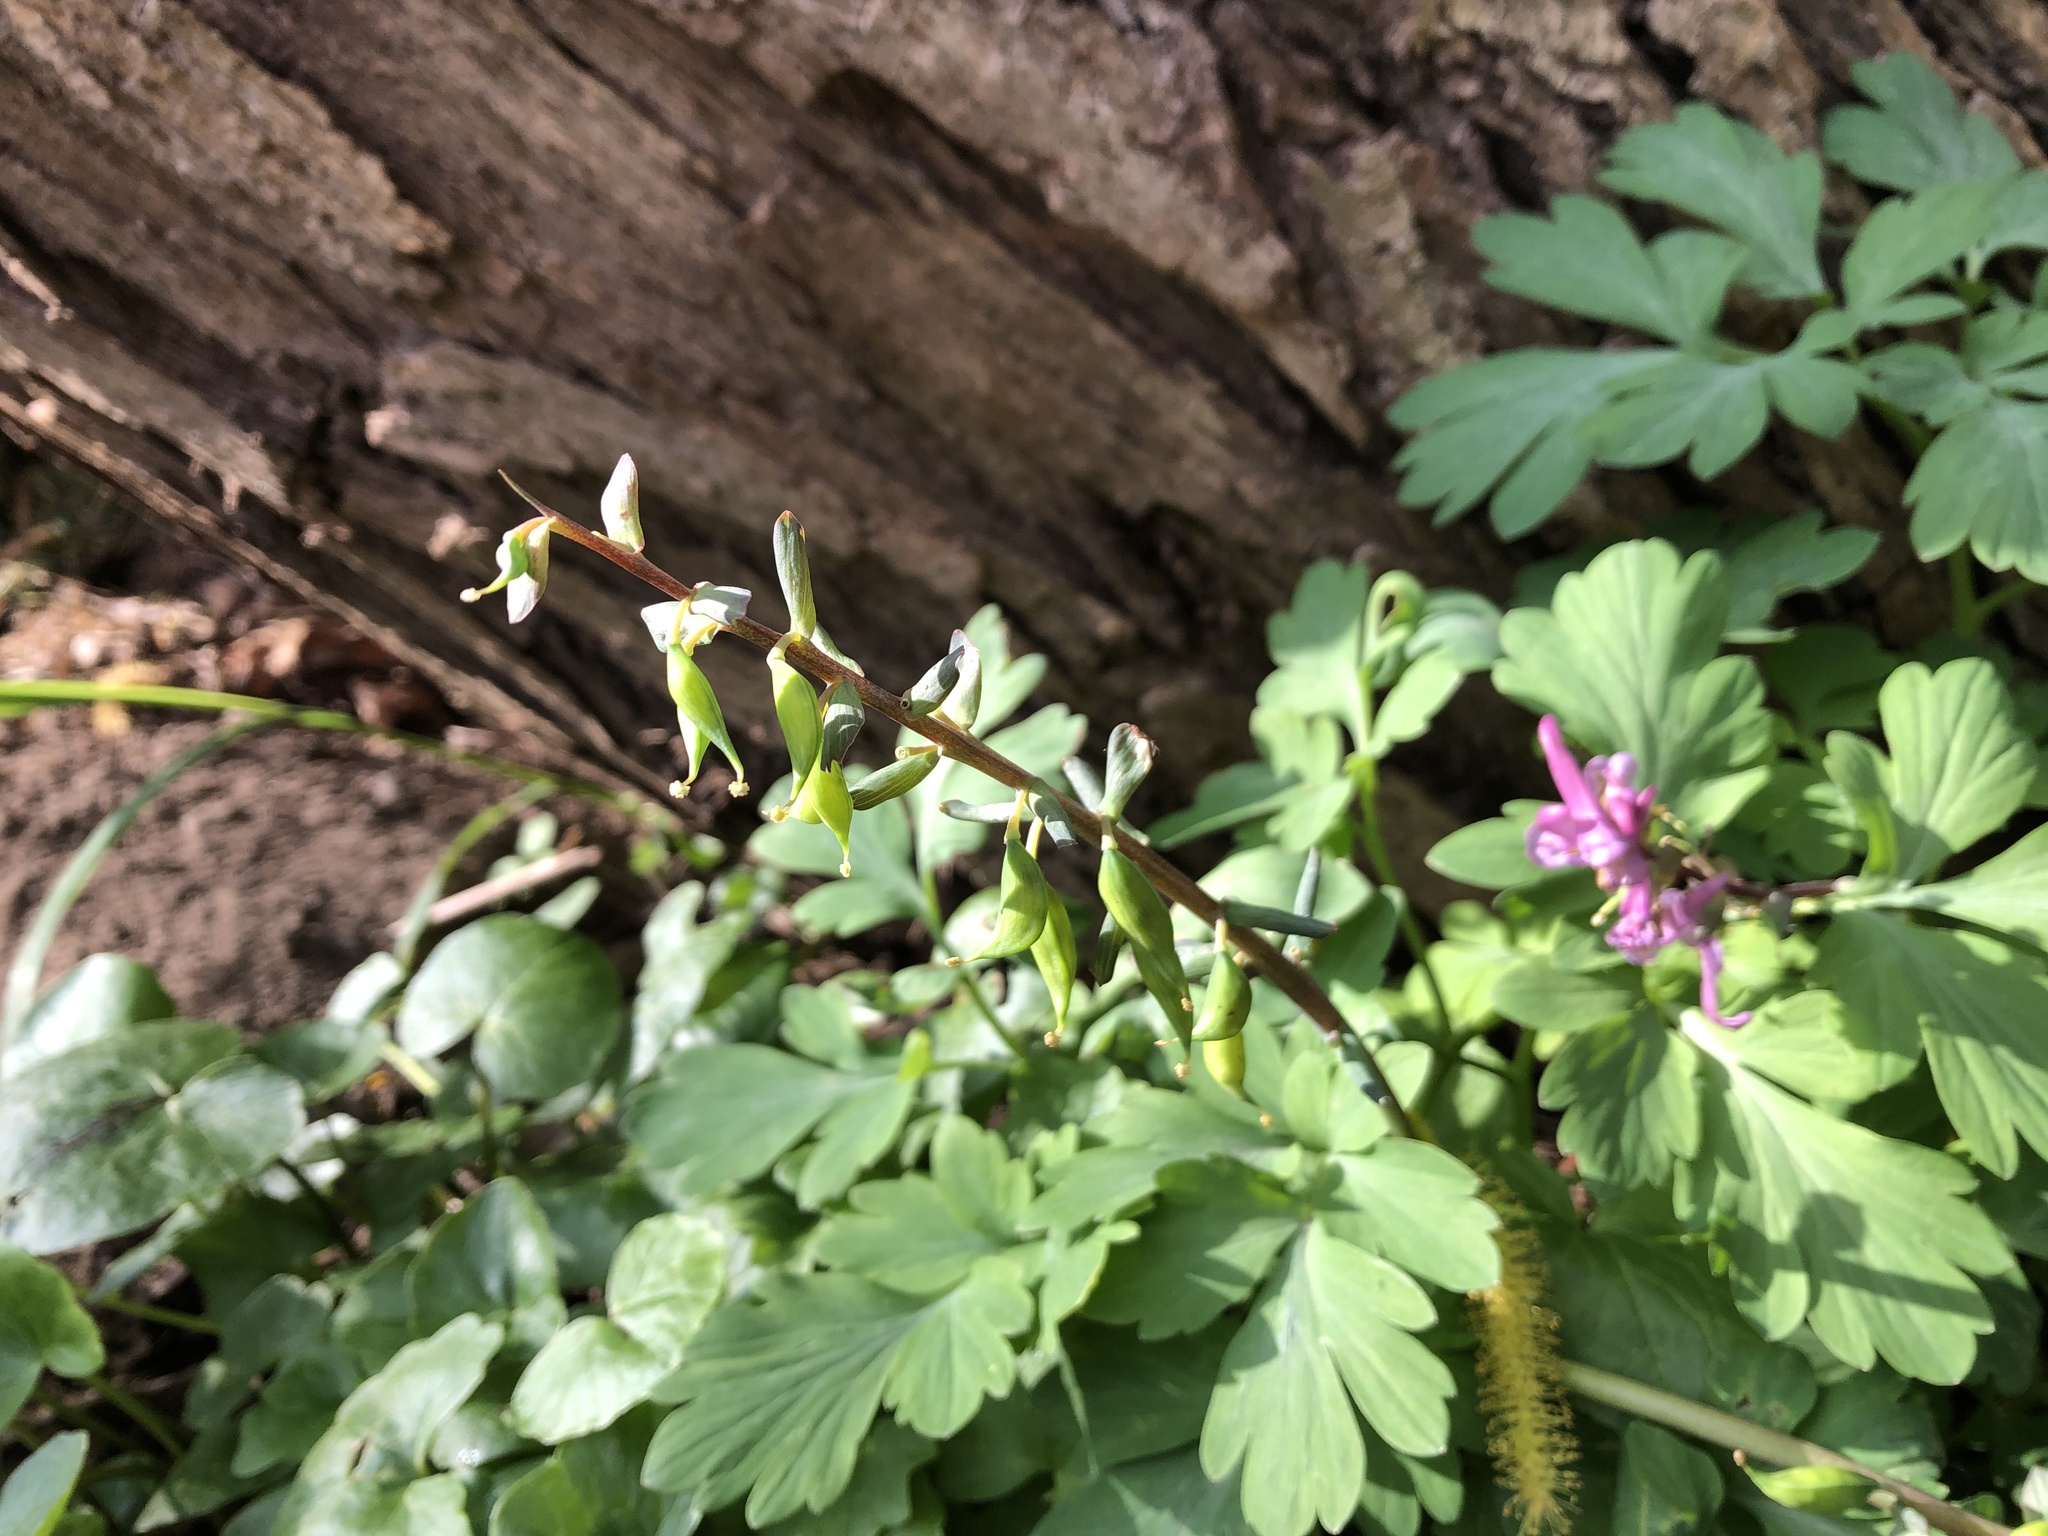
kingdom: Plantae
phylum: Tracheophyta
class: Magnoliopsida
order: Ranunculales
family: Papaveraceae
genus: Corydalis
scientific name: Corydalis cava
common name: Hollowroot
